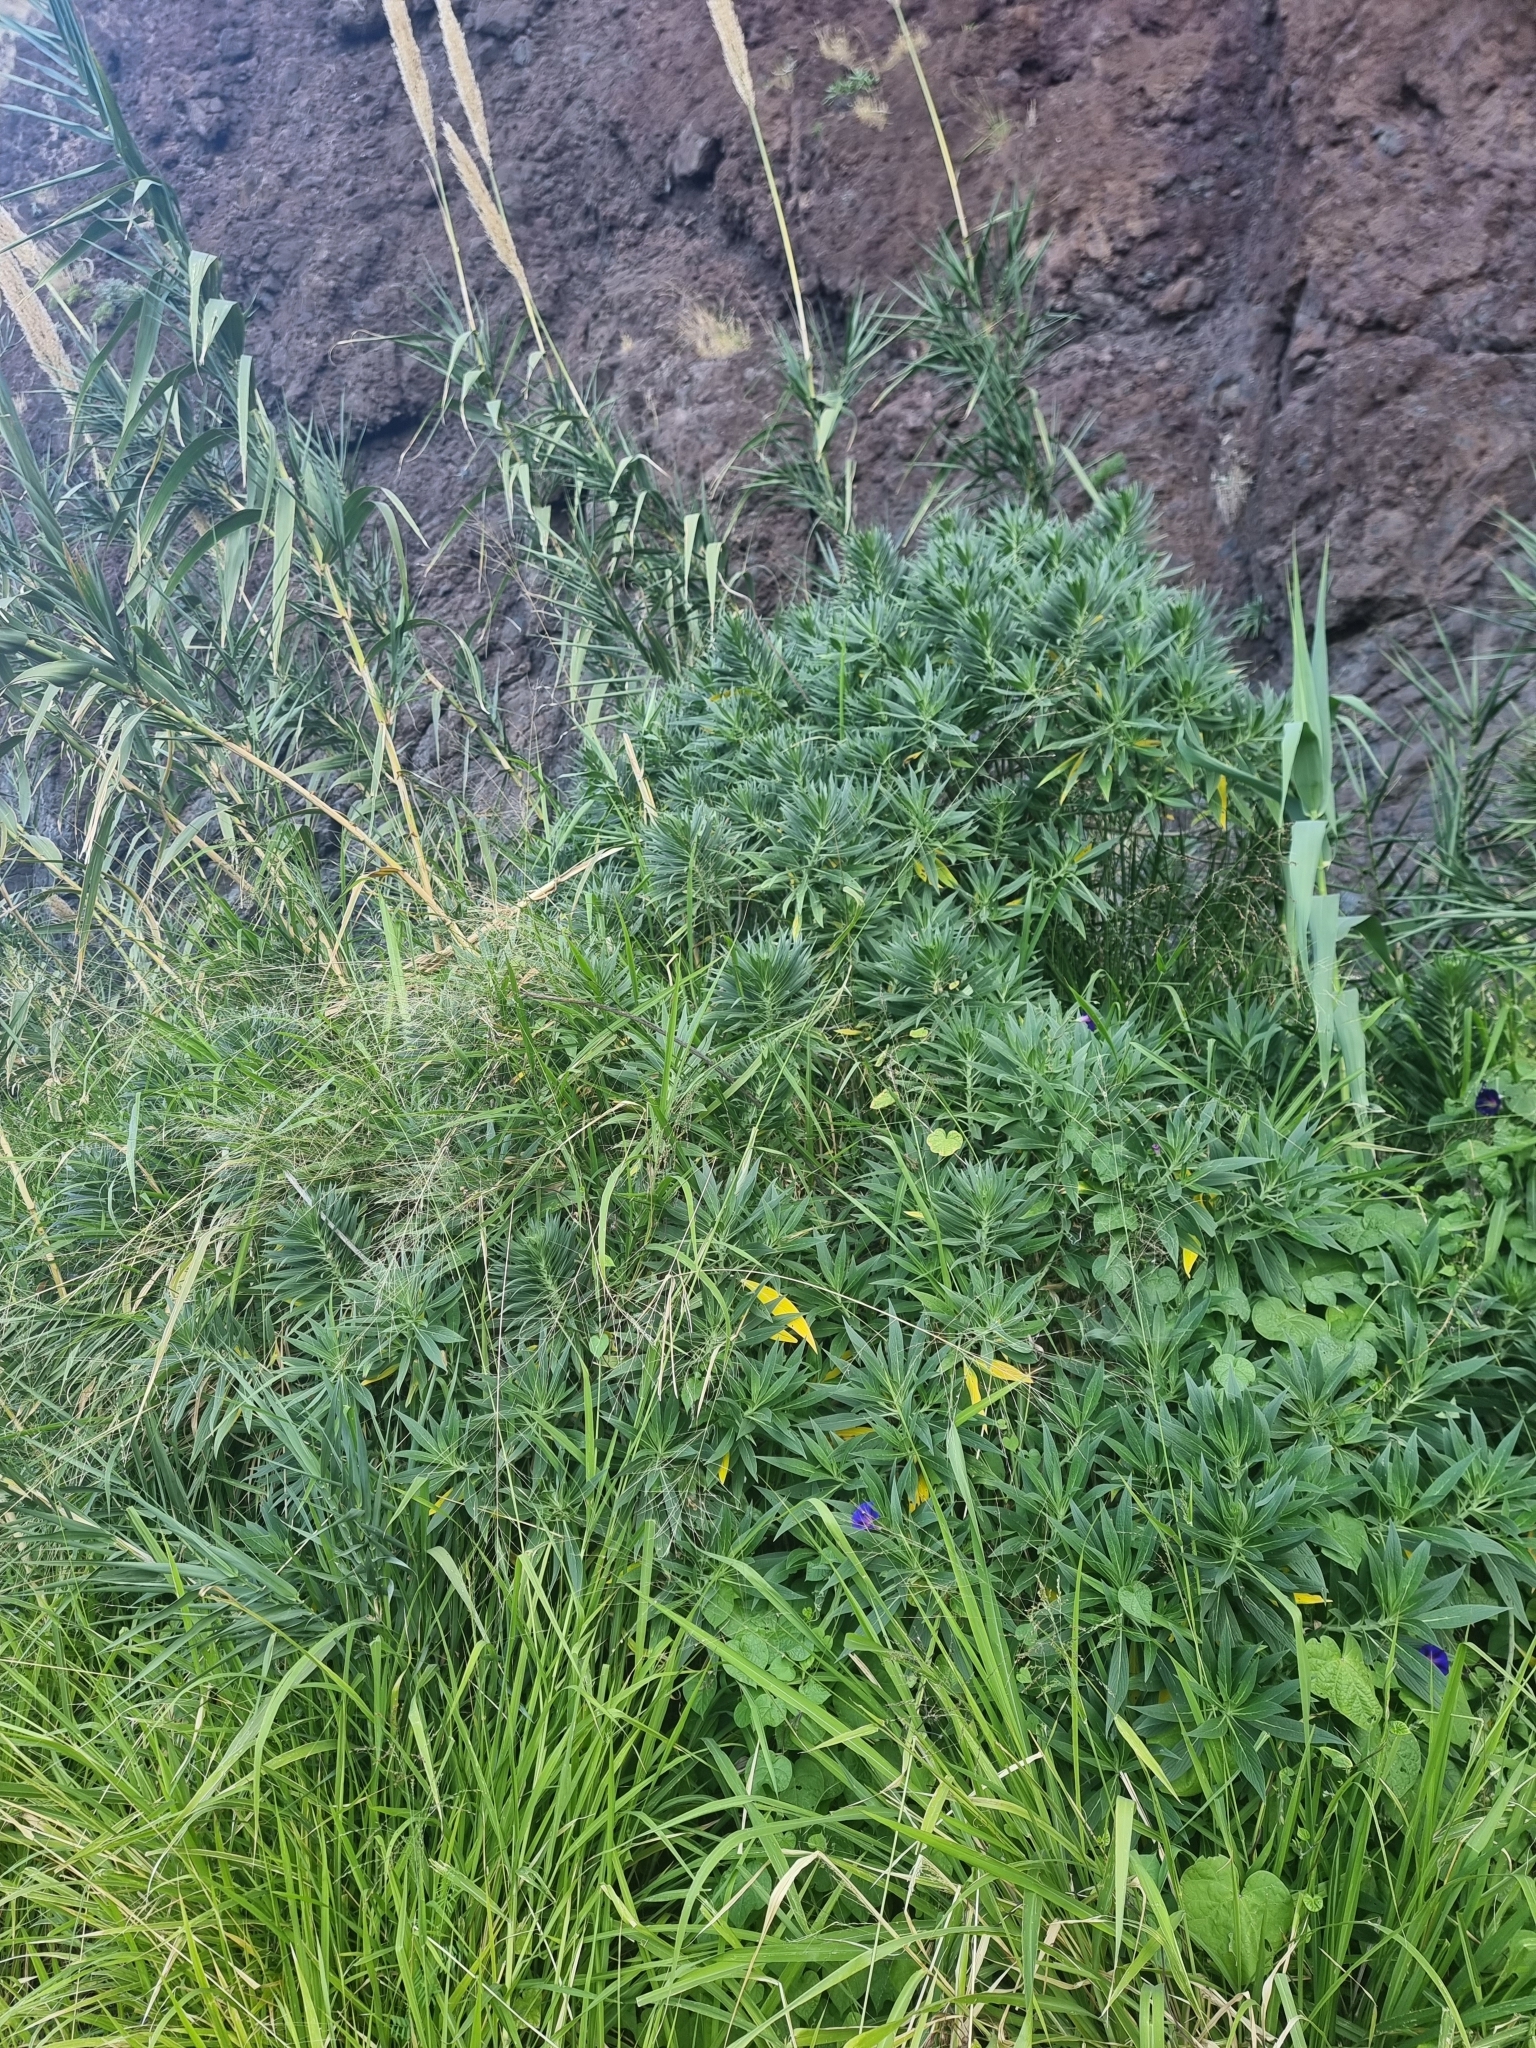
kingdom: Plantae
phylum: Tracheophyta
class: Magnoliopsida
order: Boraginales
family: Boraginaceae
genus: Echium
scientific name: Echium nervosum
